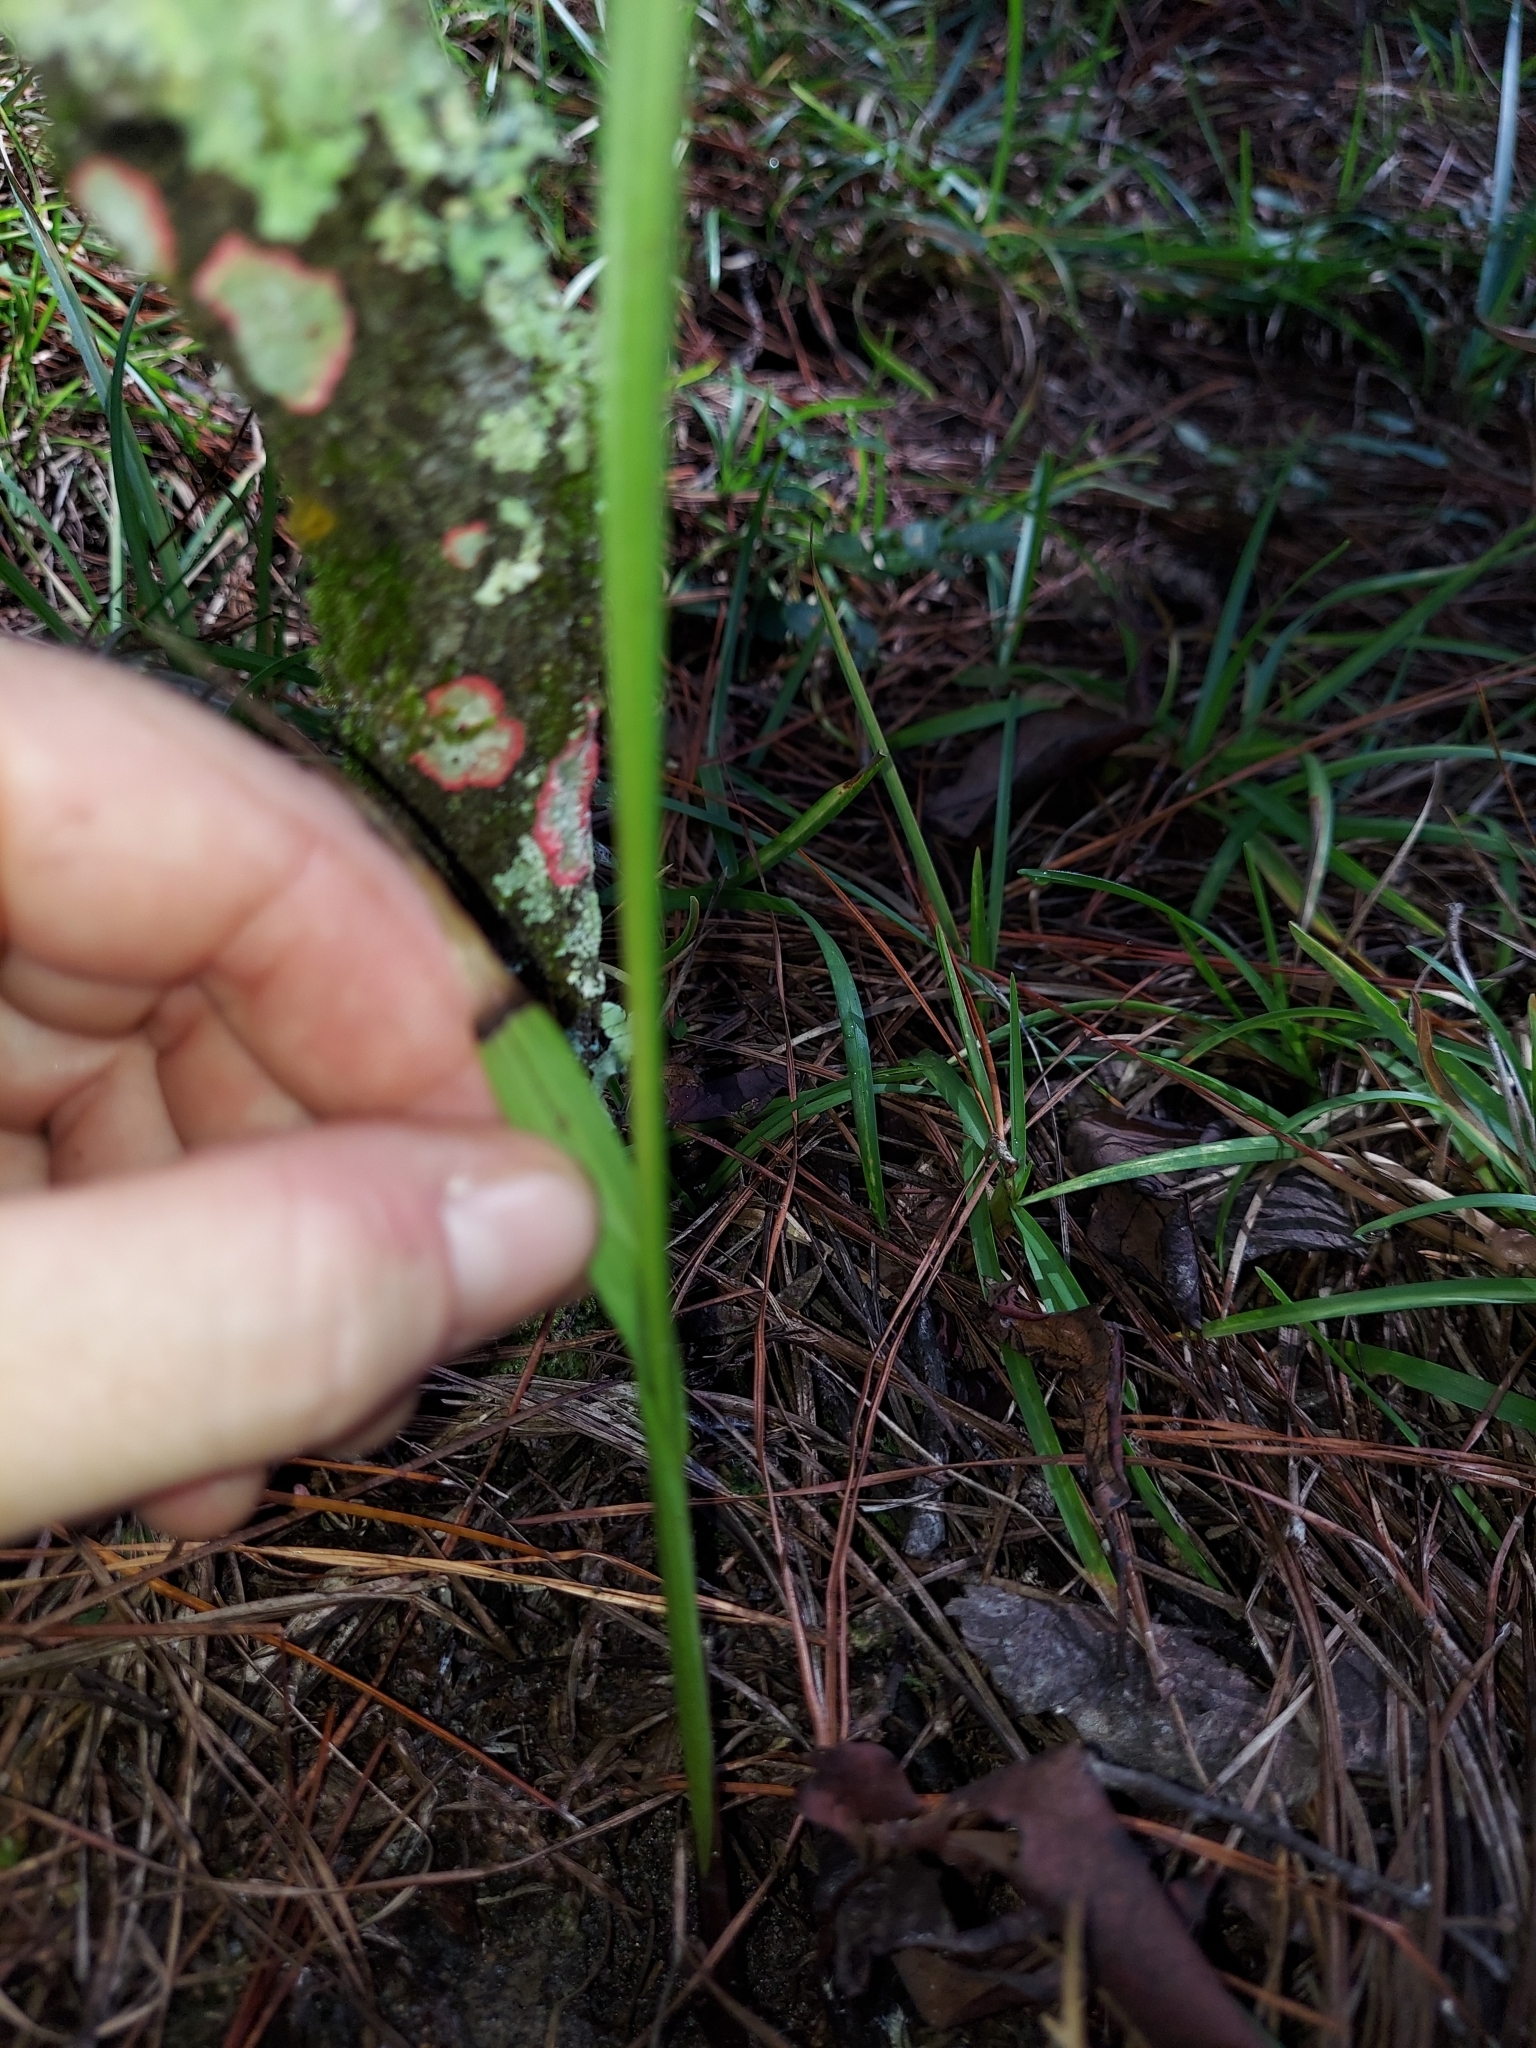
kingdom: Plantae
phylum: Tracheophyta
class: Liliopsida
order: Asparagales
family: Orchidaceae
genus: Eulophia
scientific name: Eulophia ecristata
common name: Giant orchid
